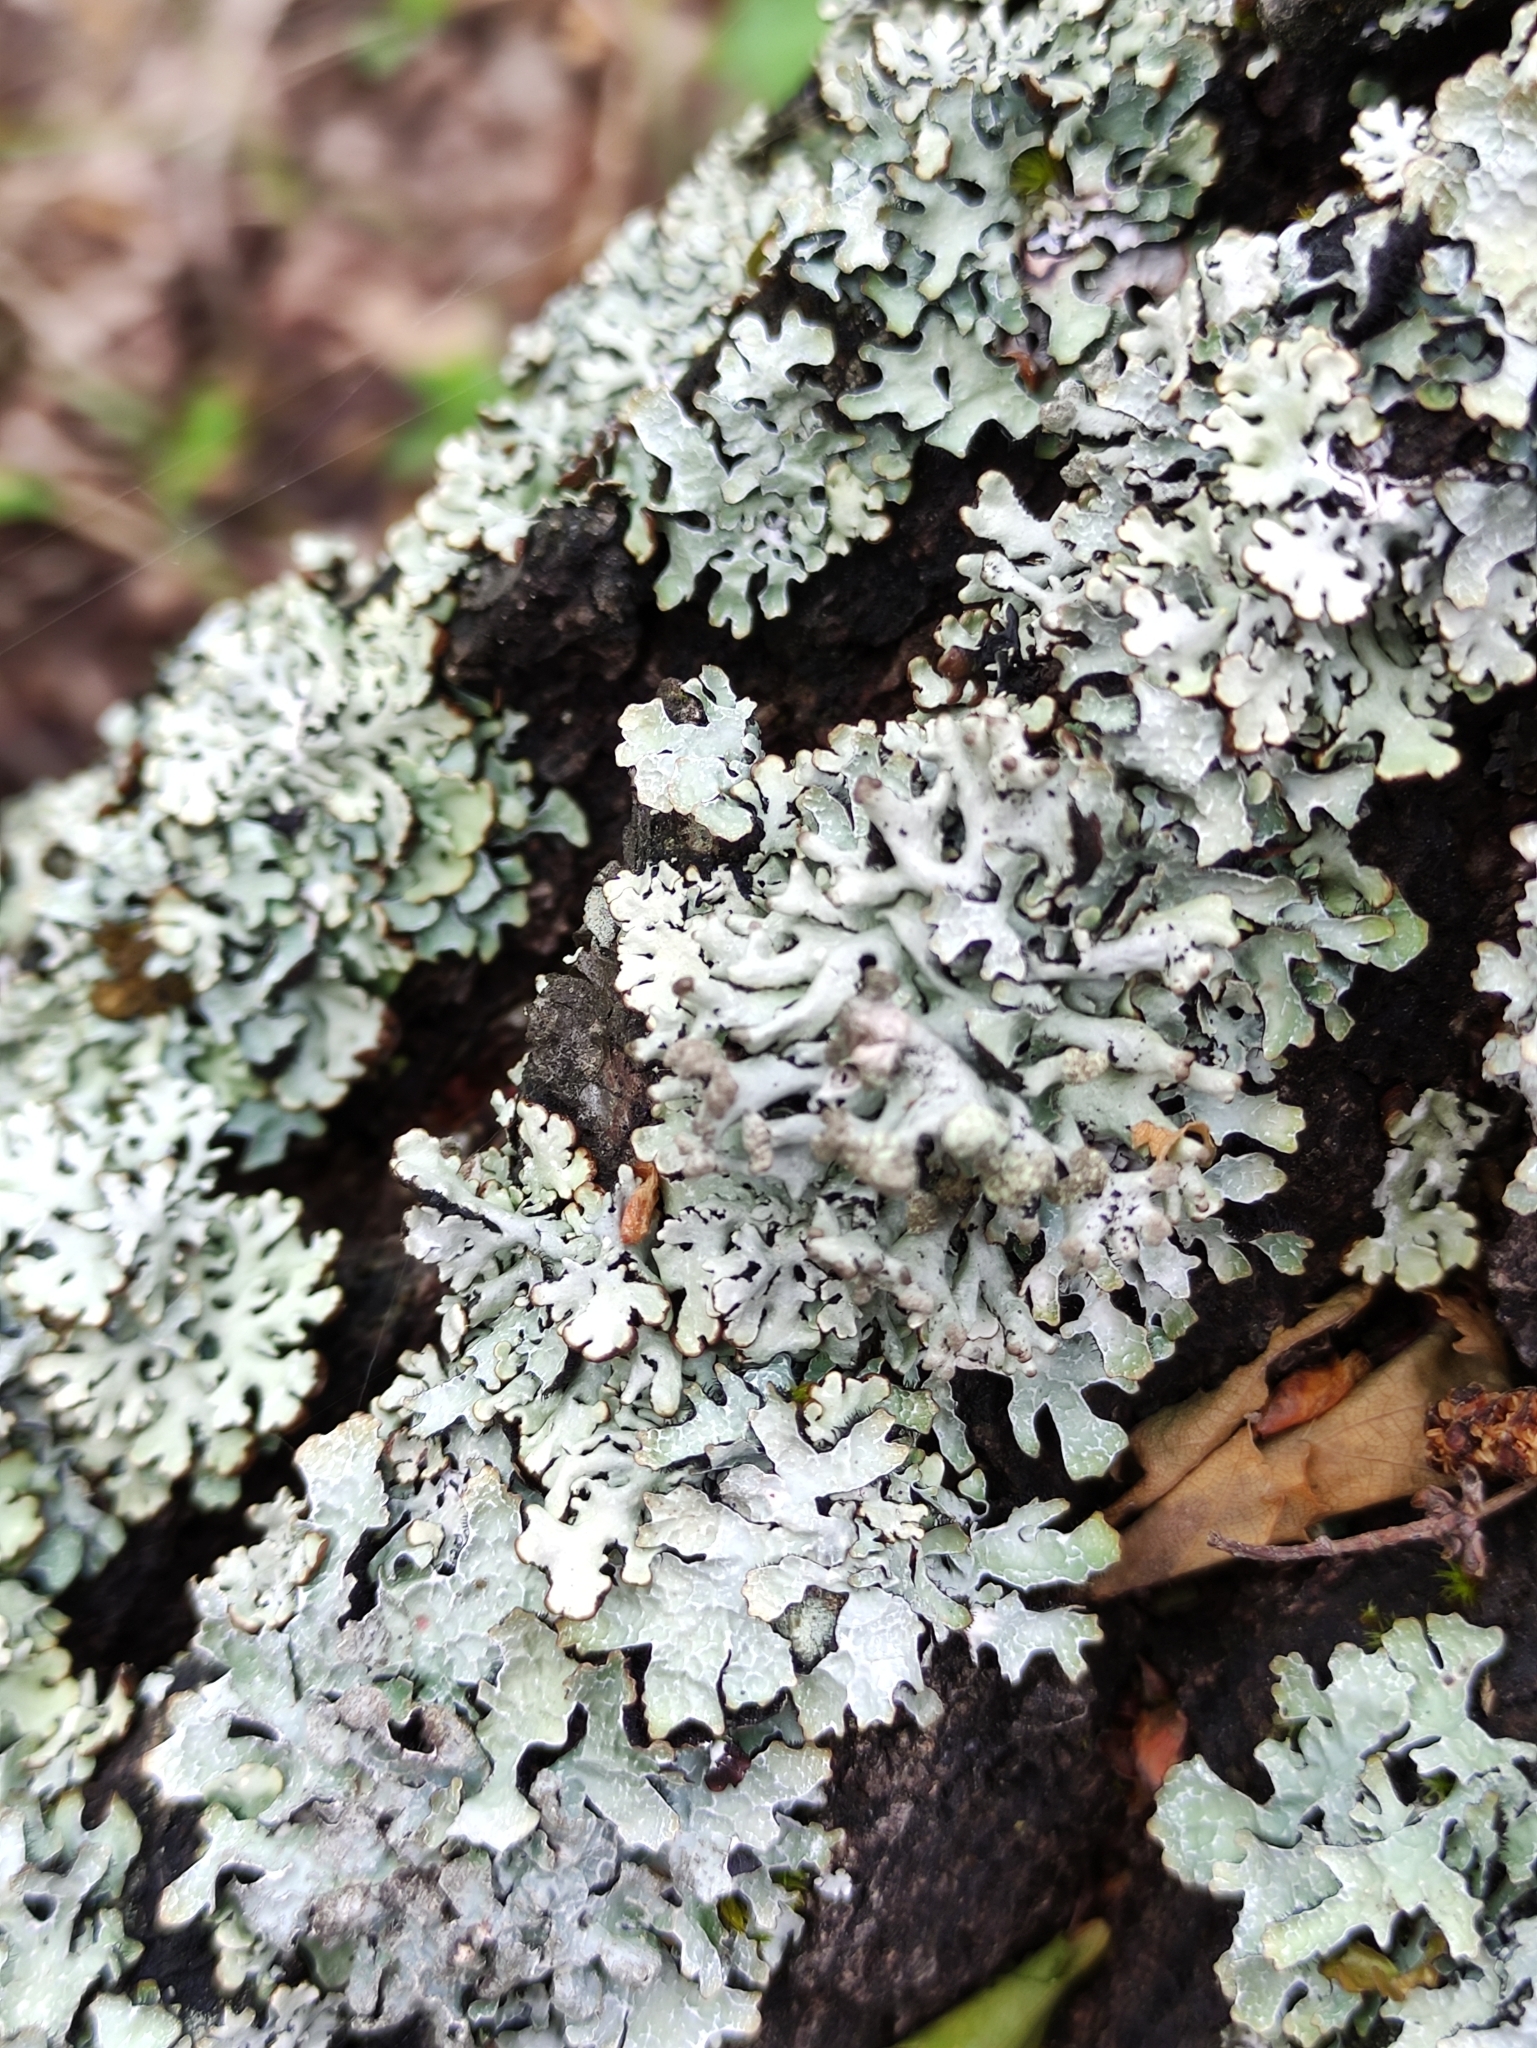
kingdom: Fungi
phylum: Ascomycota
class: Lecanoromycetes
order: Lecanorales
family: Parmeliaceae
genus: Hypogymnia
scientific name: Hypogymnia tubulosa
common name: Powder-headed tube lichen
